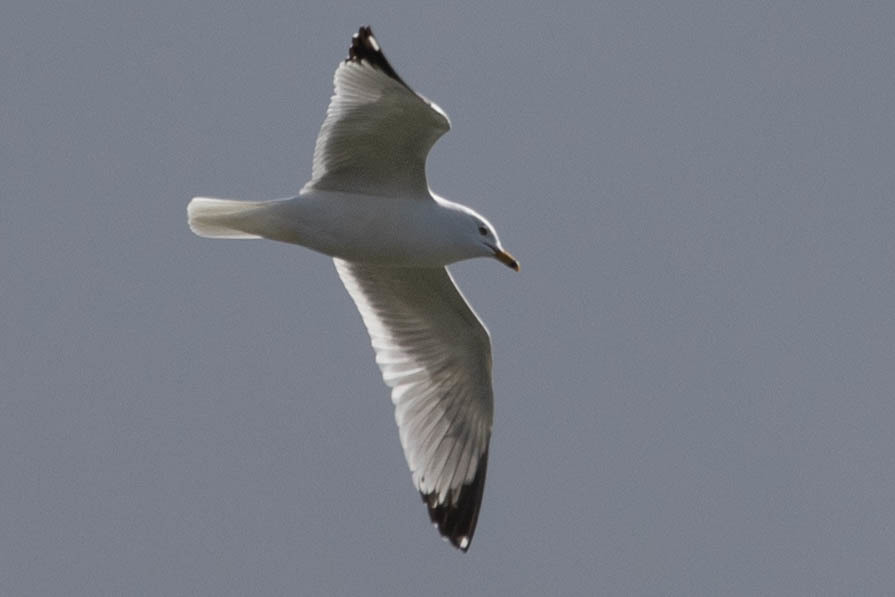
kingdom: Animalia
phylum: Chordata
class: Aves
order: Charadriiformes
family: Laridae
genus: Larus
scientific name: Larus delawarensis
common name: Ring-billed gull
